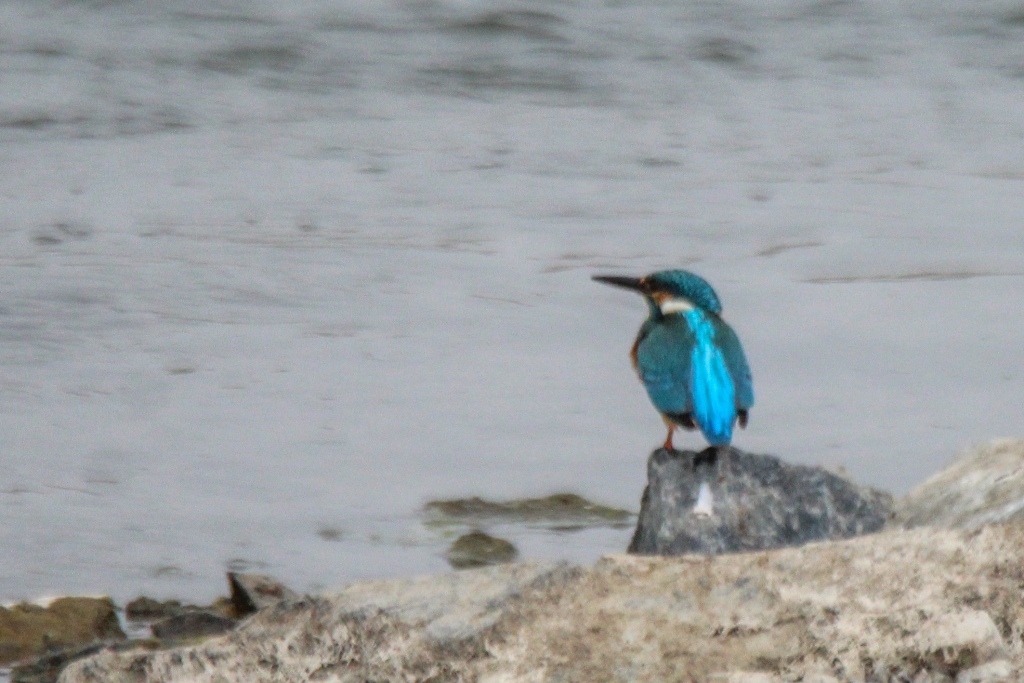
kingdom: Animalia
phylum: Chordata
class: Aves
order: Coraciiformes
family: Alcedinidae
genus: Alcedo
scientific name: Alcedo atthis
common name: Common kingfisher
